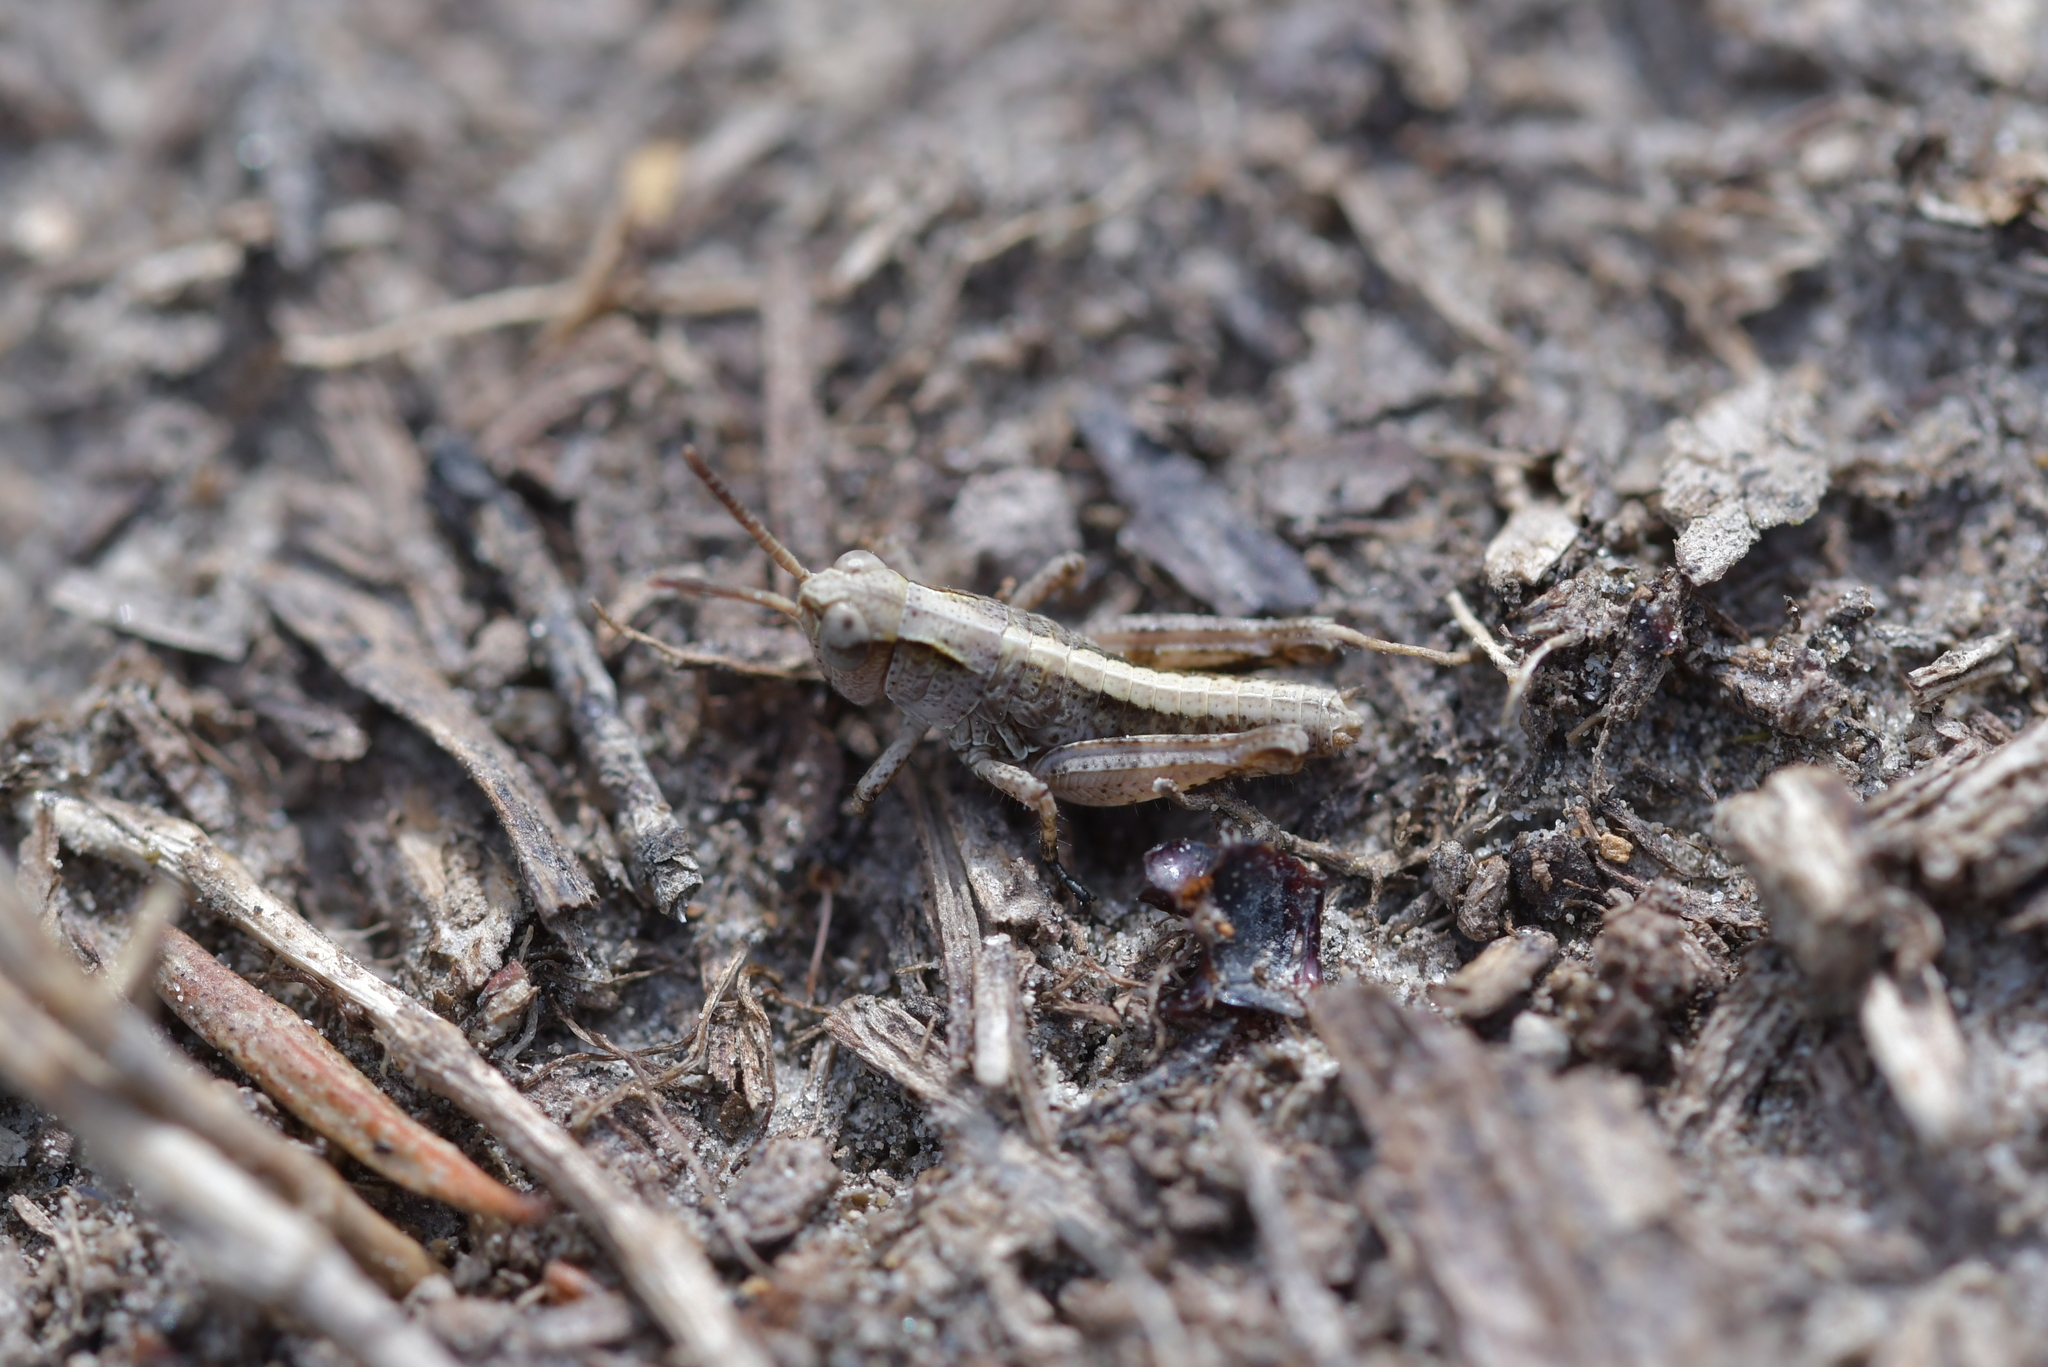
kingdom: Animalia
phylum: Arthropoda
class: Insecta
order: Orthoptera
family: Acrididae
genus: Phaulacridium
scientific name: Phaulacridium marginale
